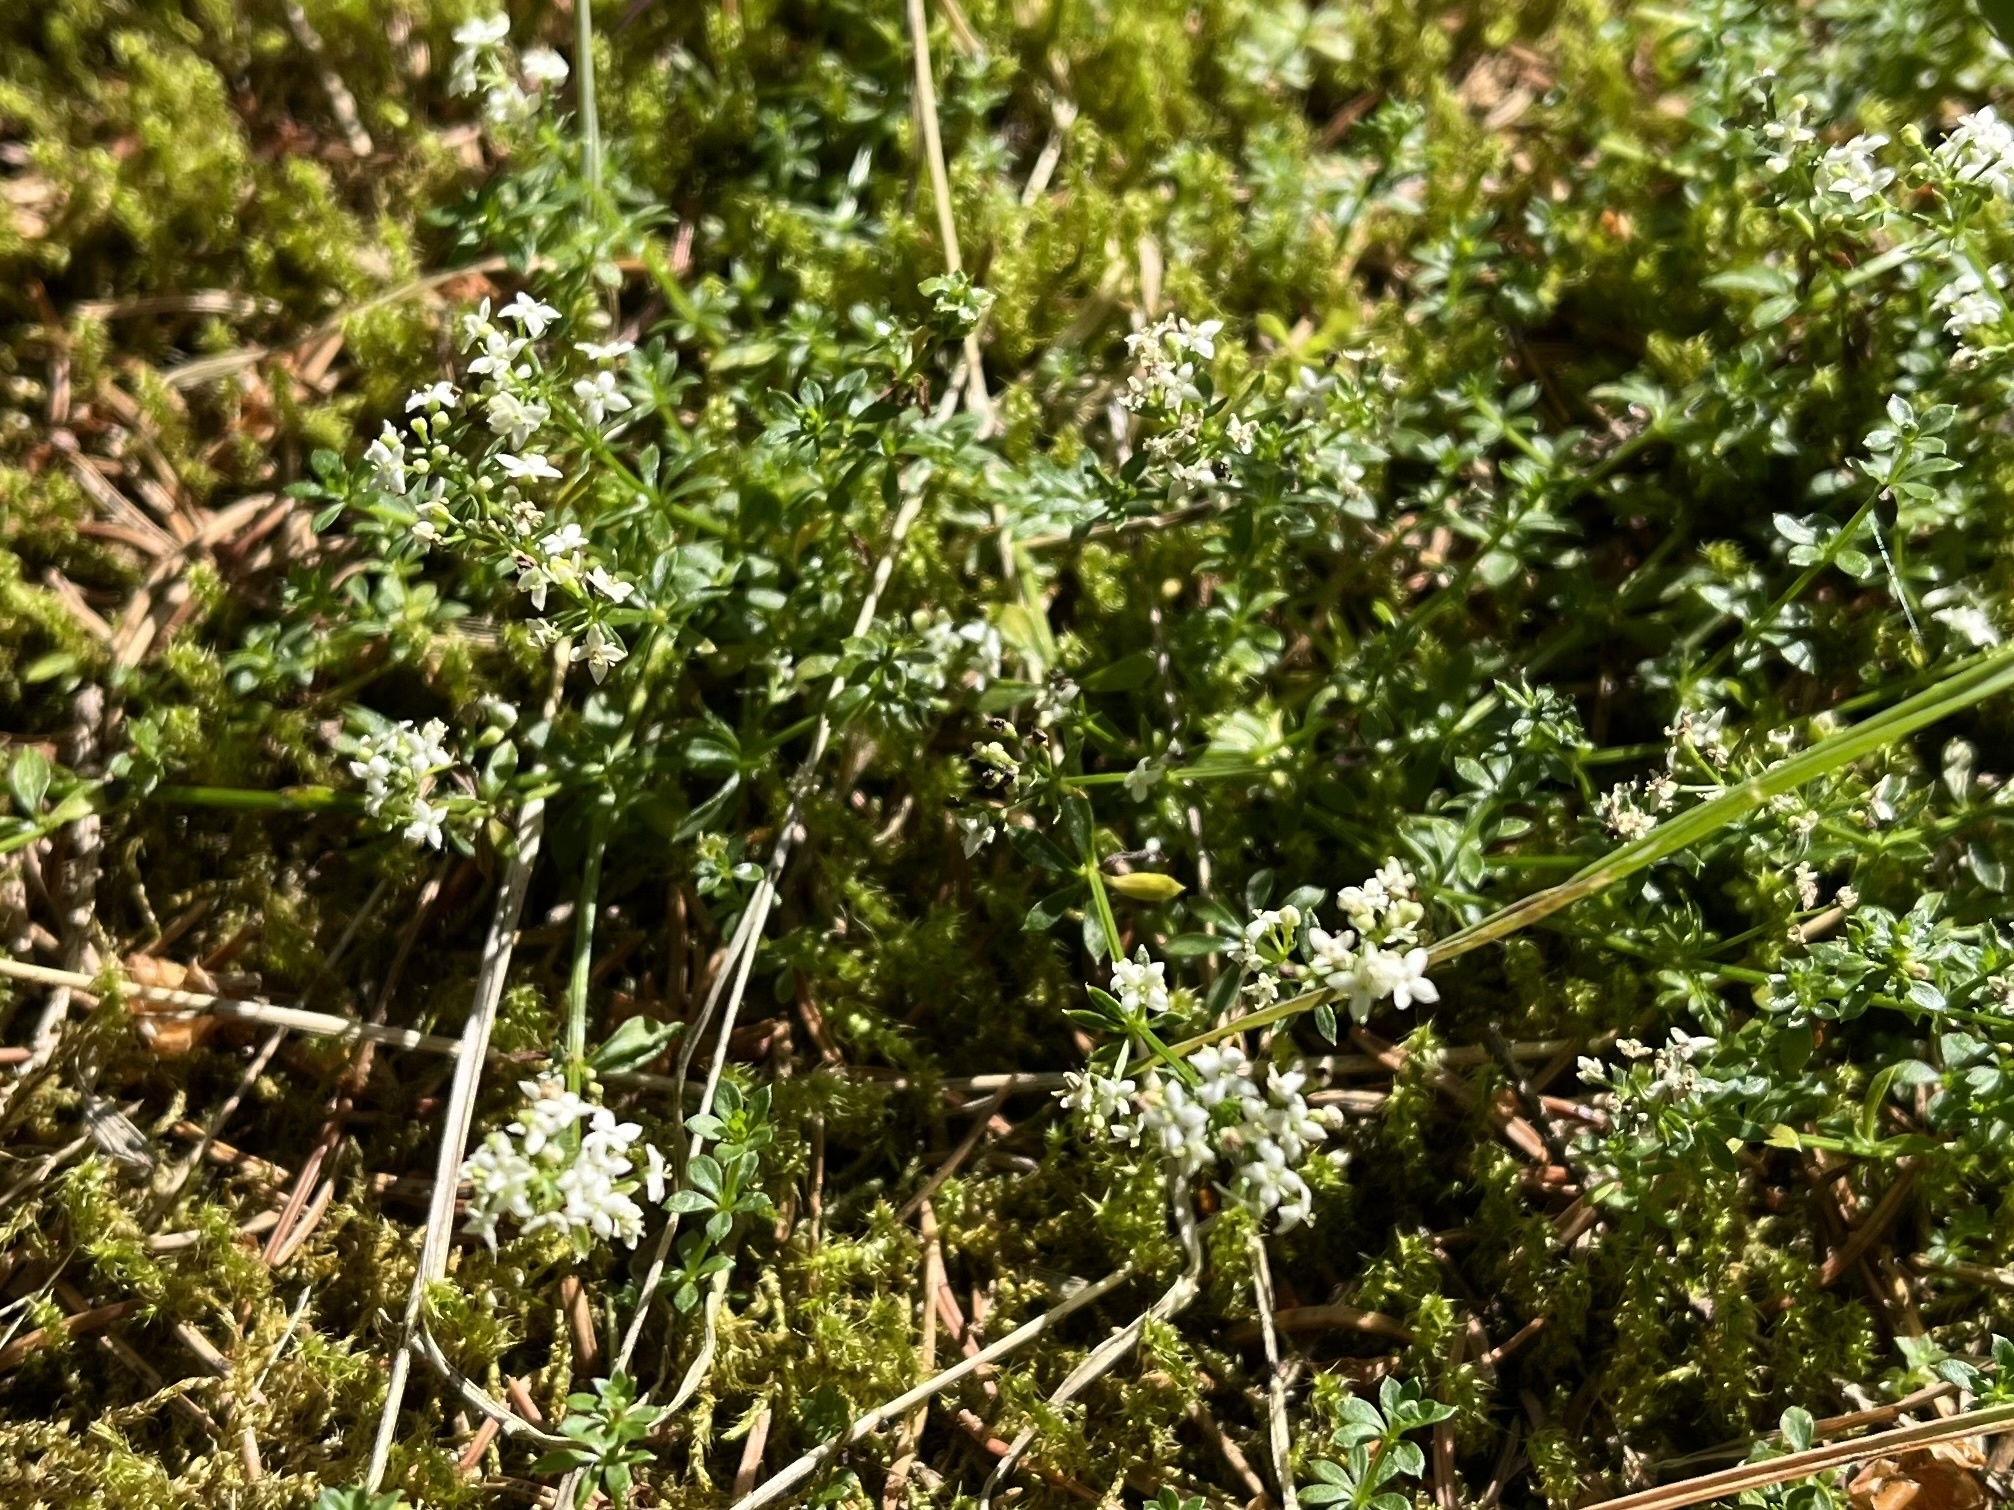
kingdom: Plantae
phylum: Tracheophyta
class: Magnoliopsida
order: Gentianales
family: Rubiaceae
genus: Galium
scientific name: Galium saxatile
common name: Heath bedstraw
